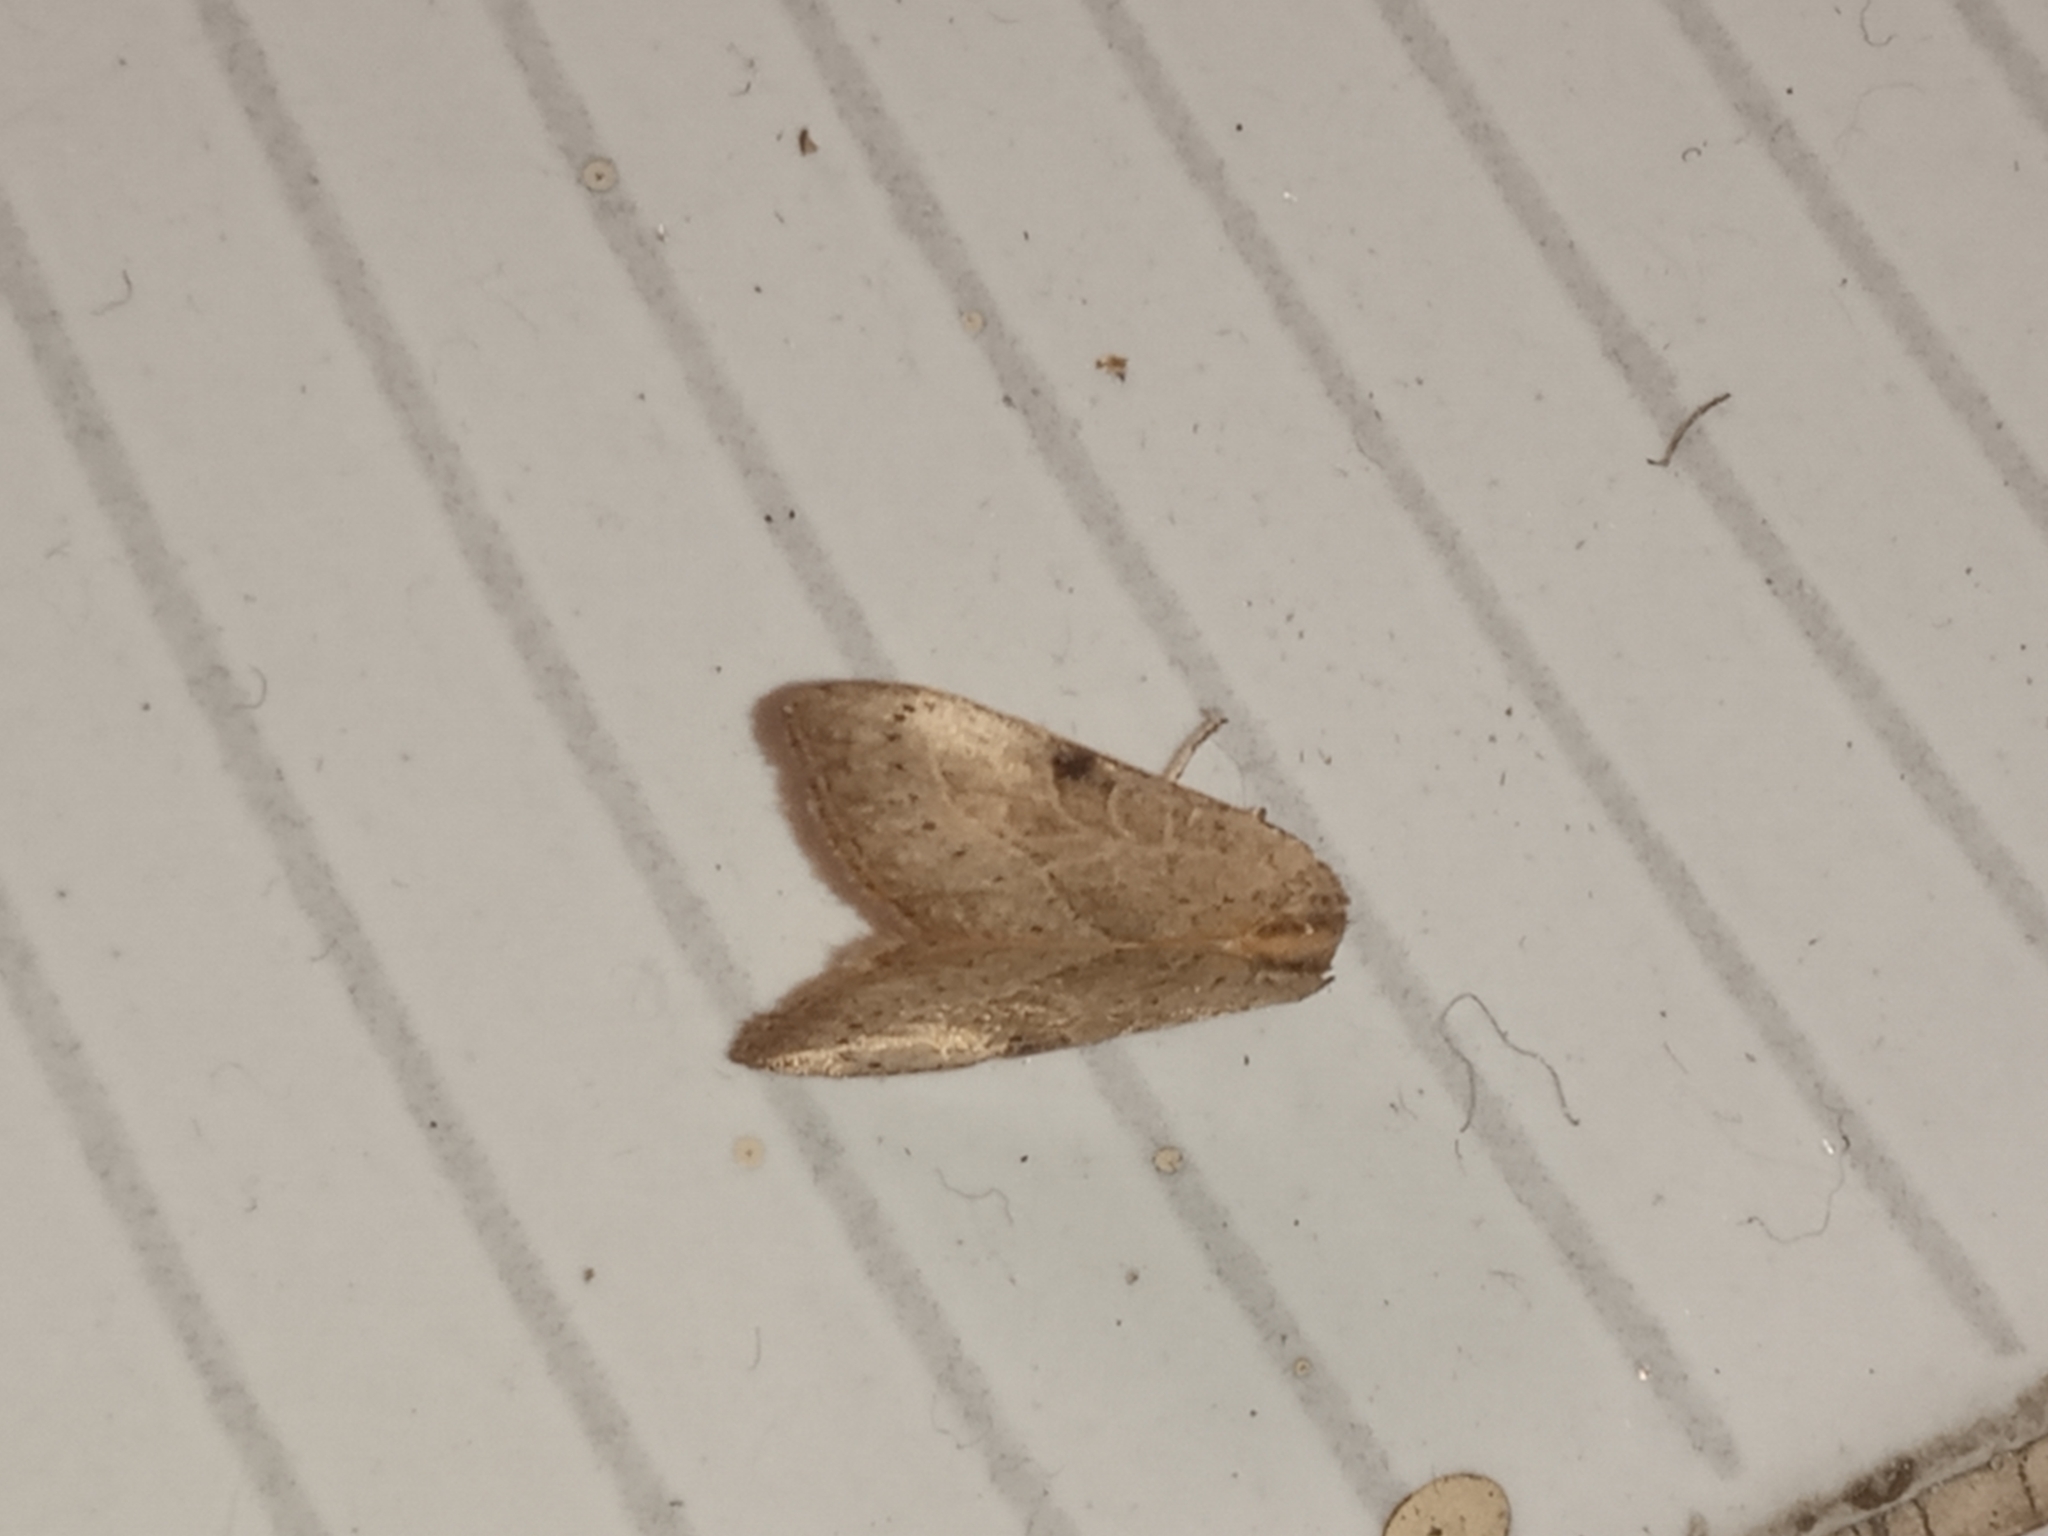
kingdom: Animalia
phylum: Arthropoda
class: Insecta
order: Lepidoptera
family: Noctuidae
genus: Galgula
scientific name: Galgula partita
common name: Wedgeling
